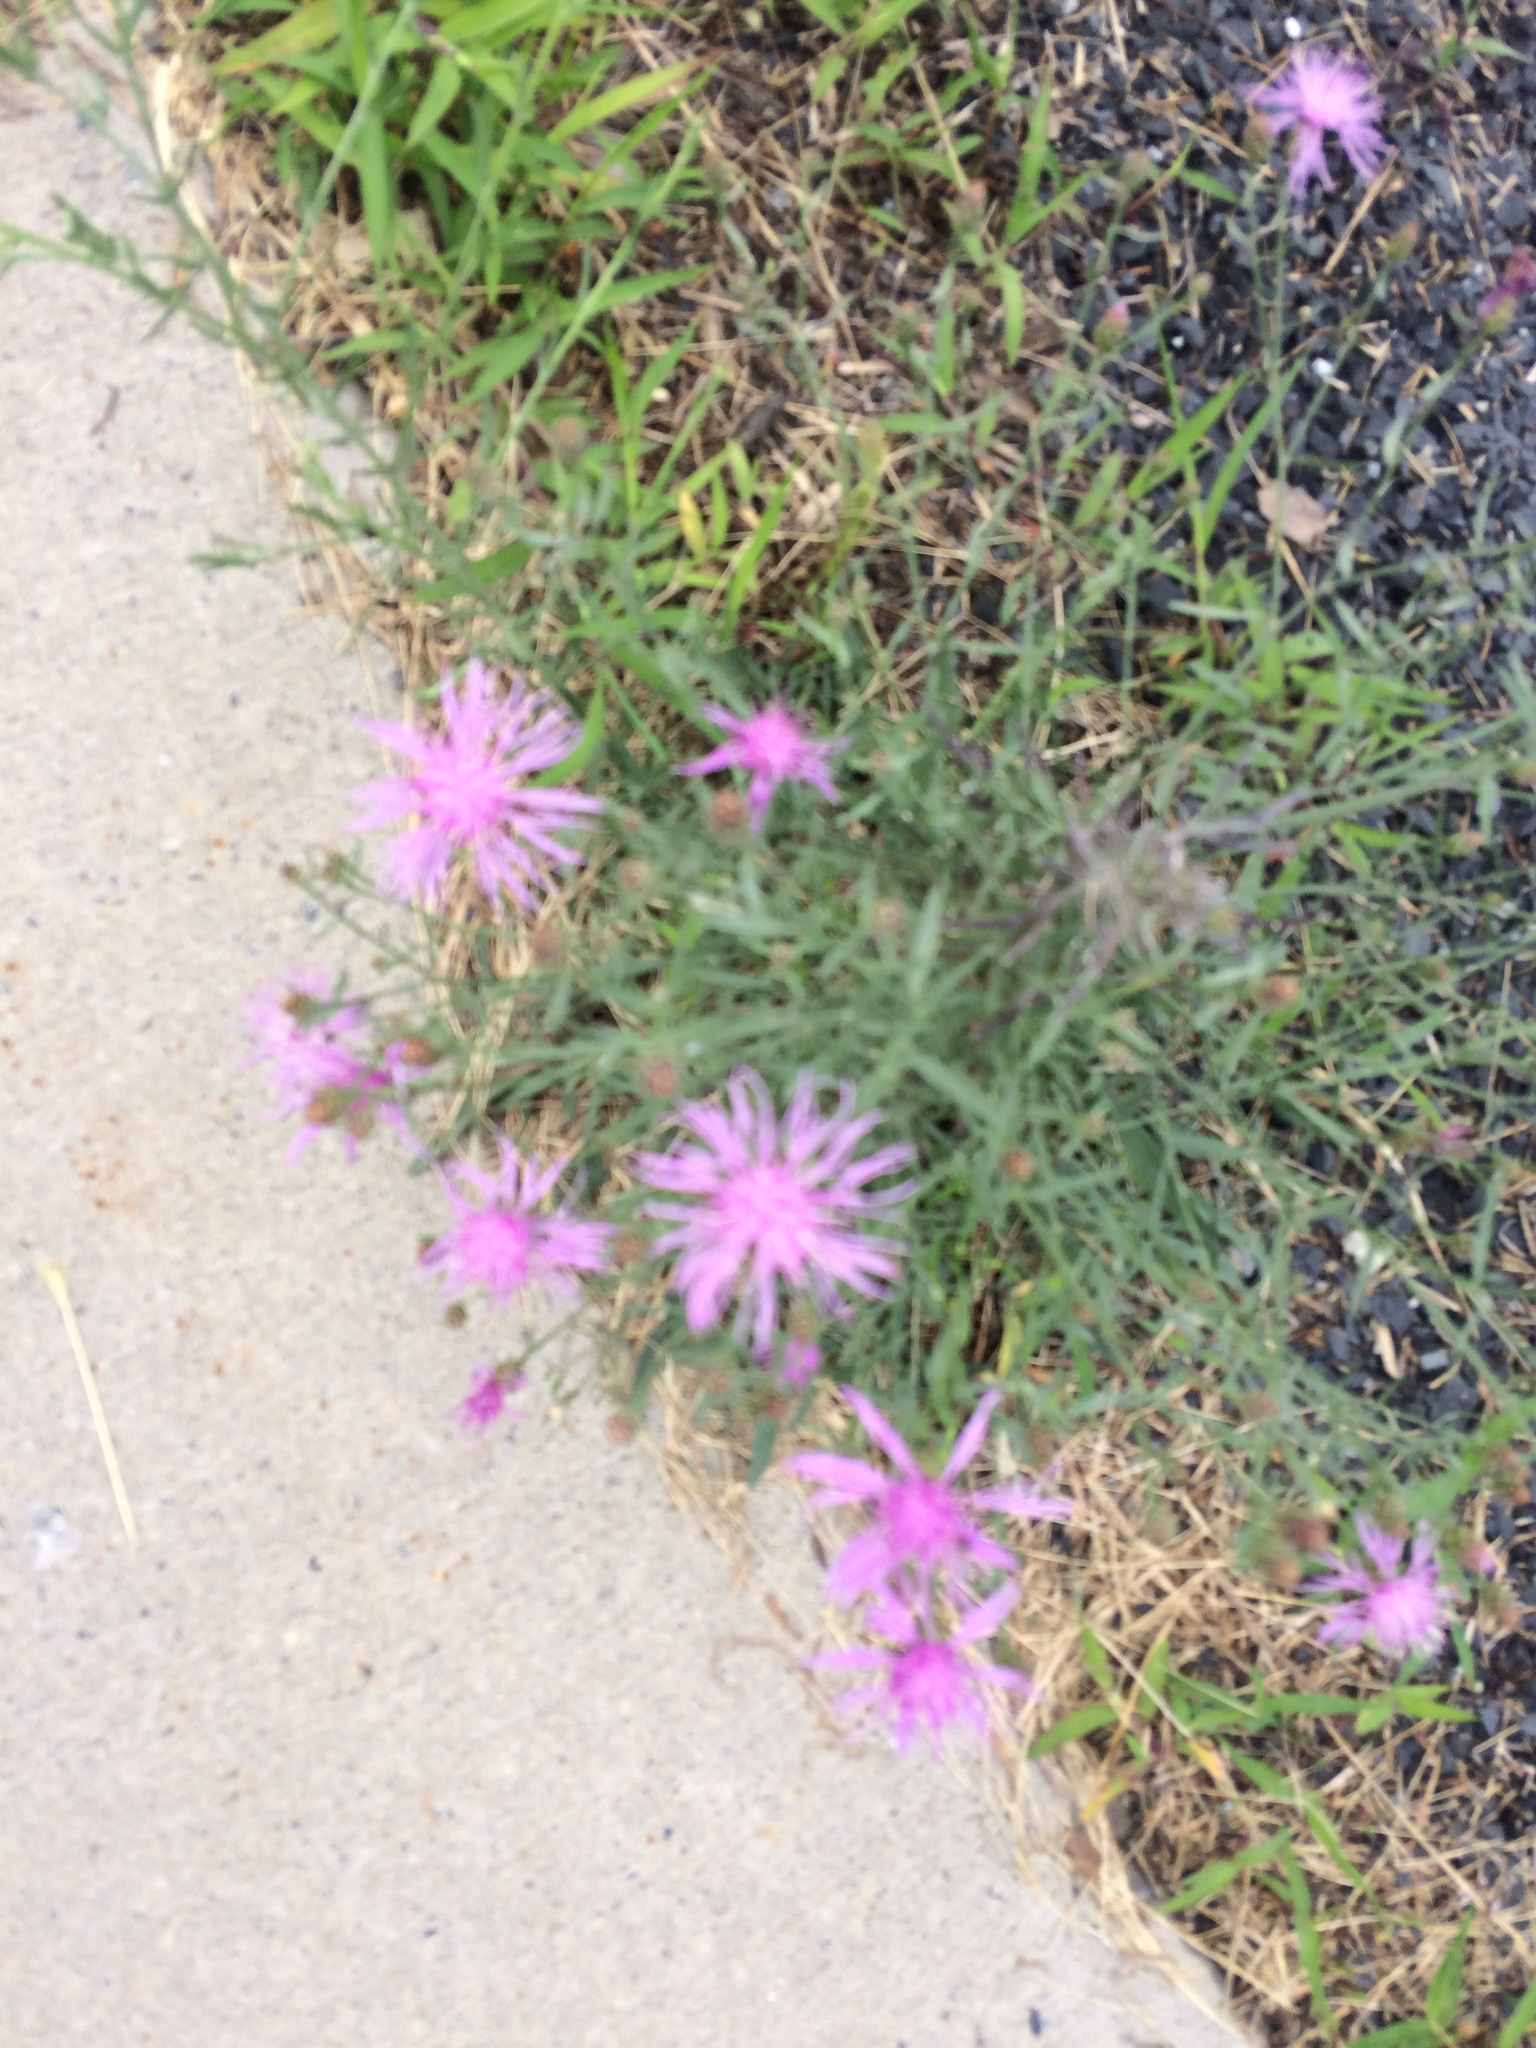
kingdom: Plantae
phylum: Tracheophyta
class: Magnoliopsida
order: Asterales
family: Asteraceae
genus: Centaurea
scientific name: Centaurea stoebe
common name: Spotted knapweed
